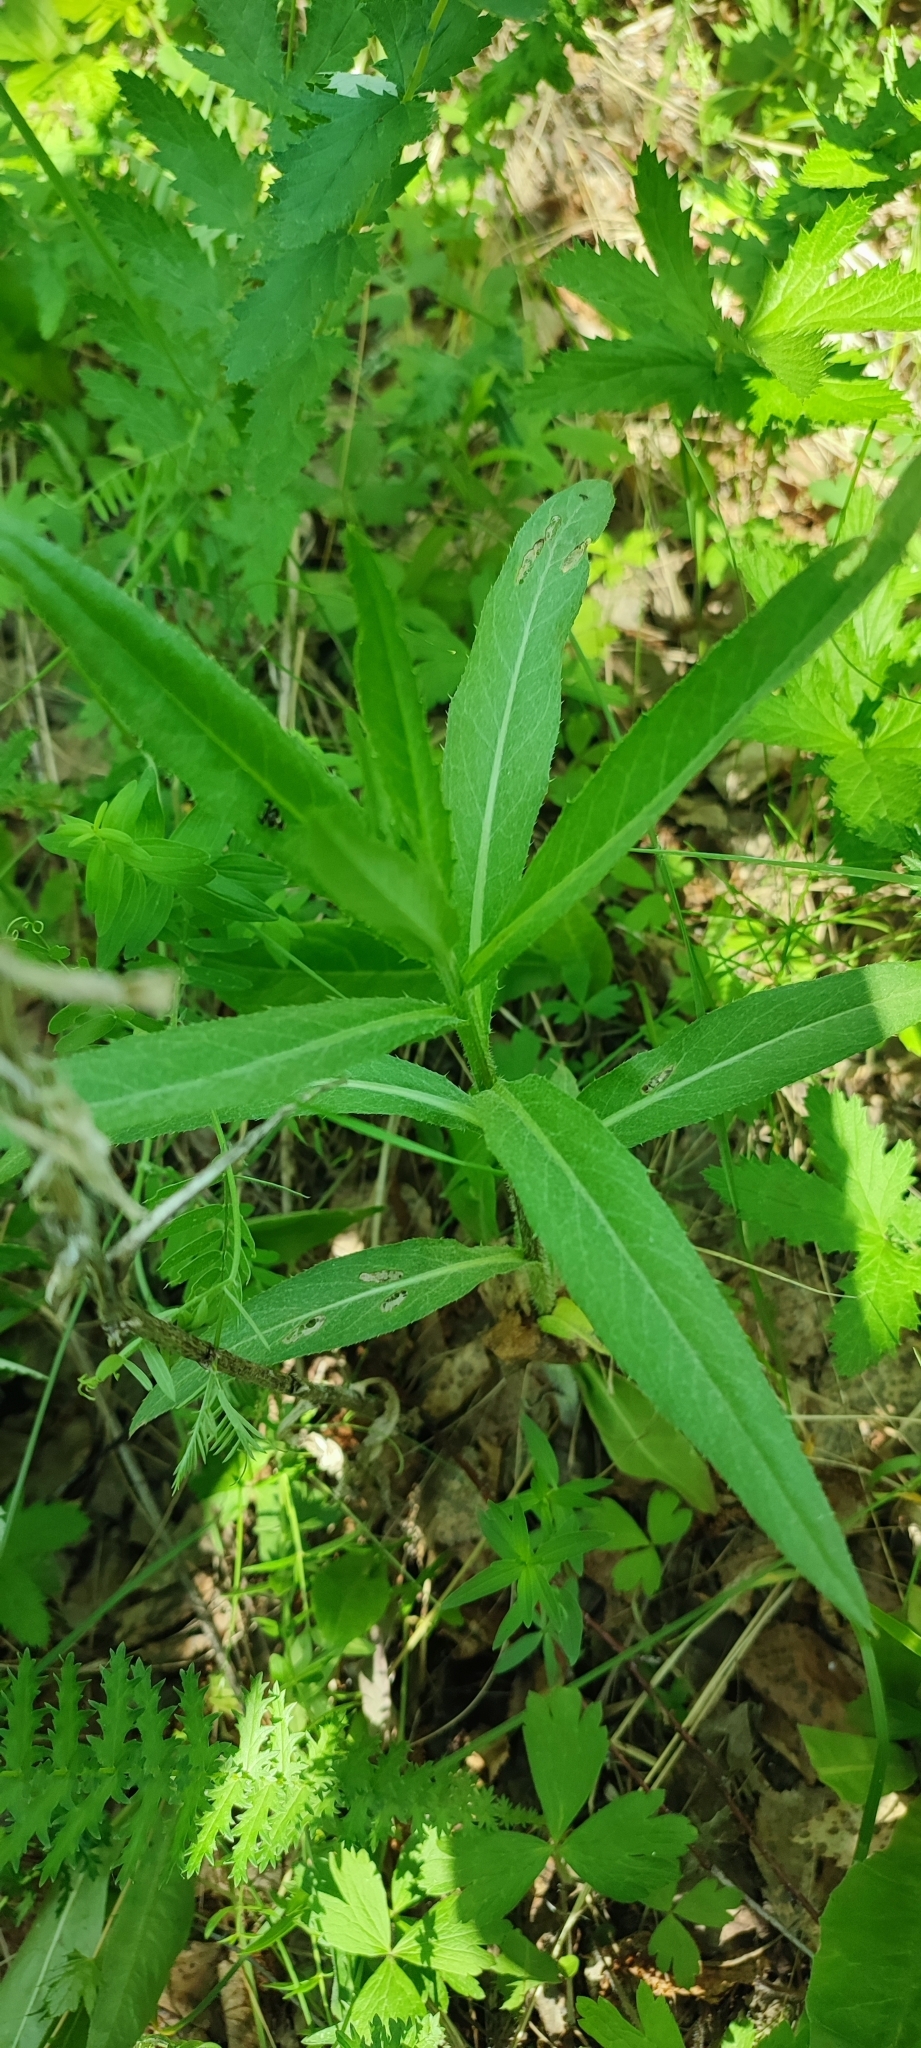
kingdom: Plantae
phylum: Tracheophyta
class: Magnoliopsida
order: Asterales
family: Asteraceae
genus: Cirsium
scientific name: Cirsium arvense
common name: Creeping thistle
